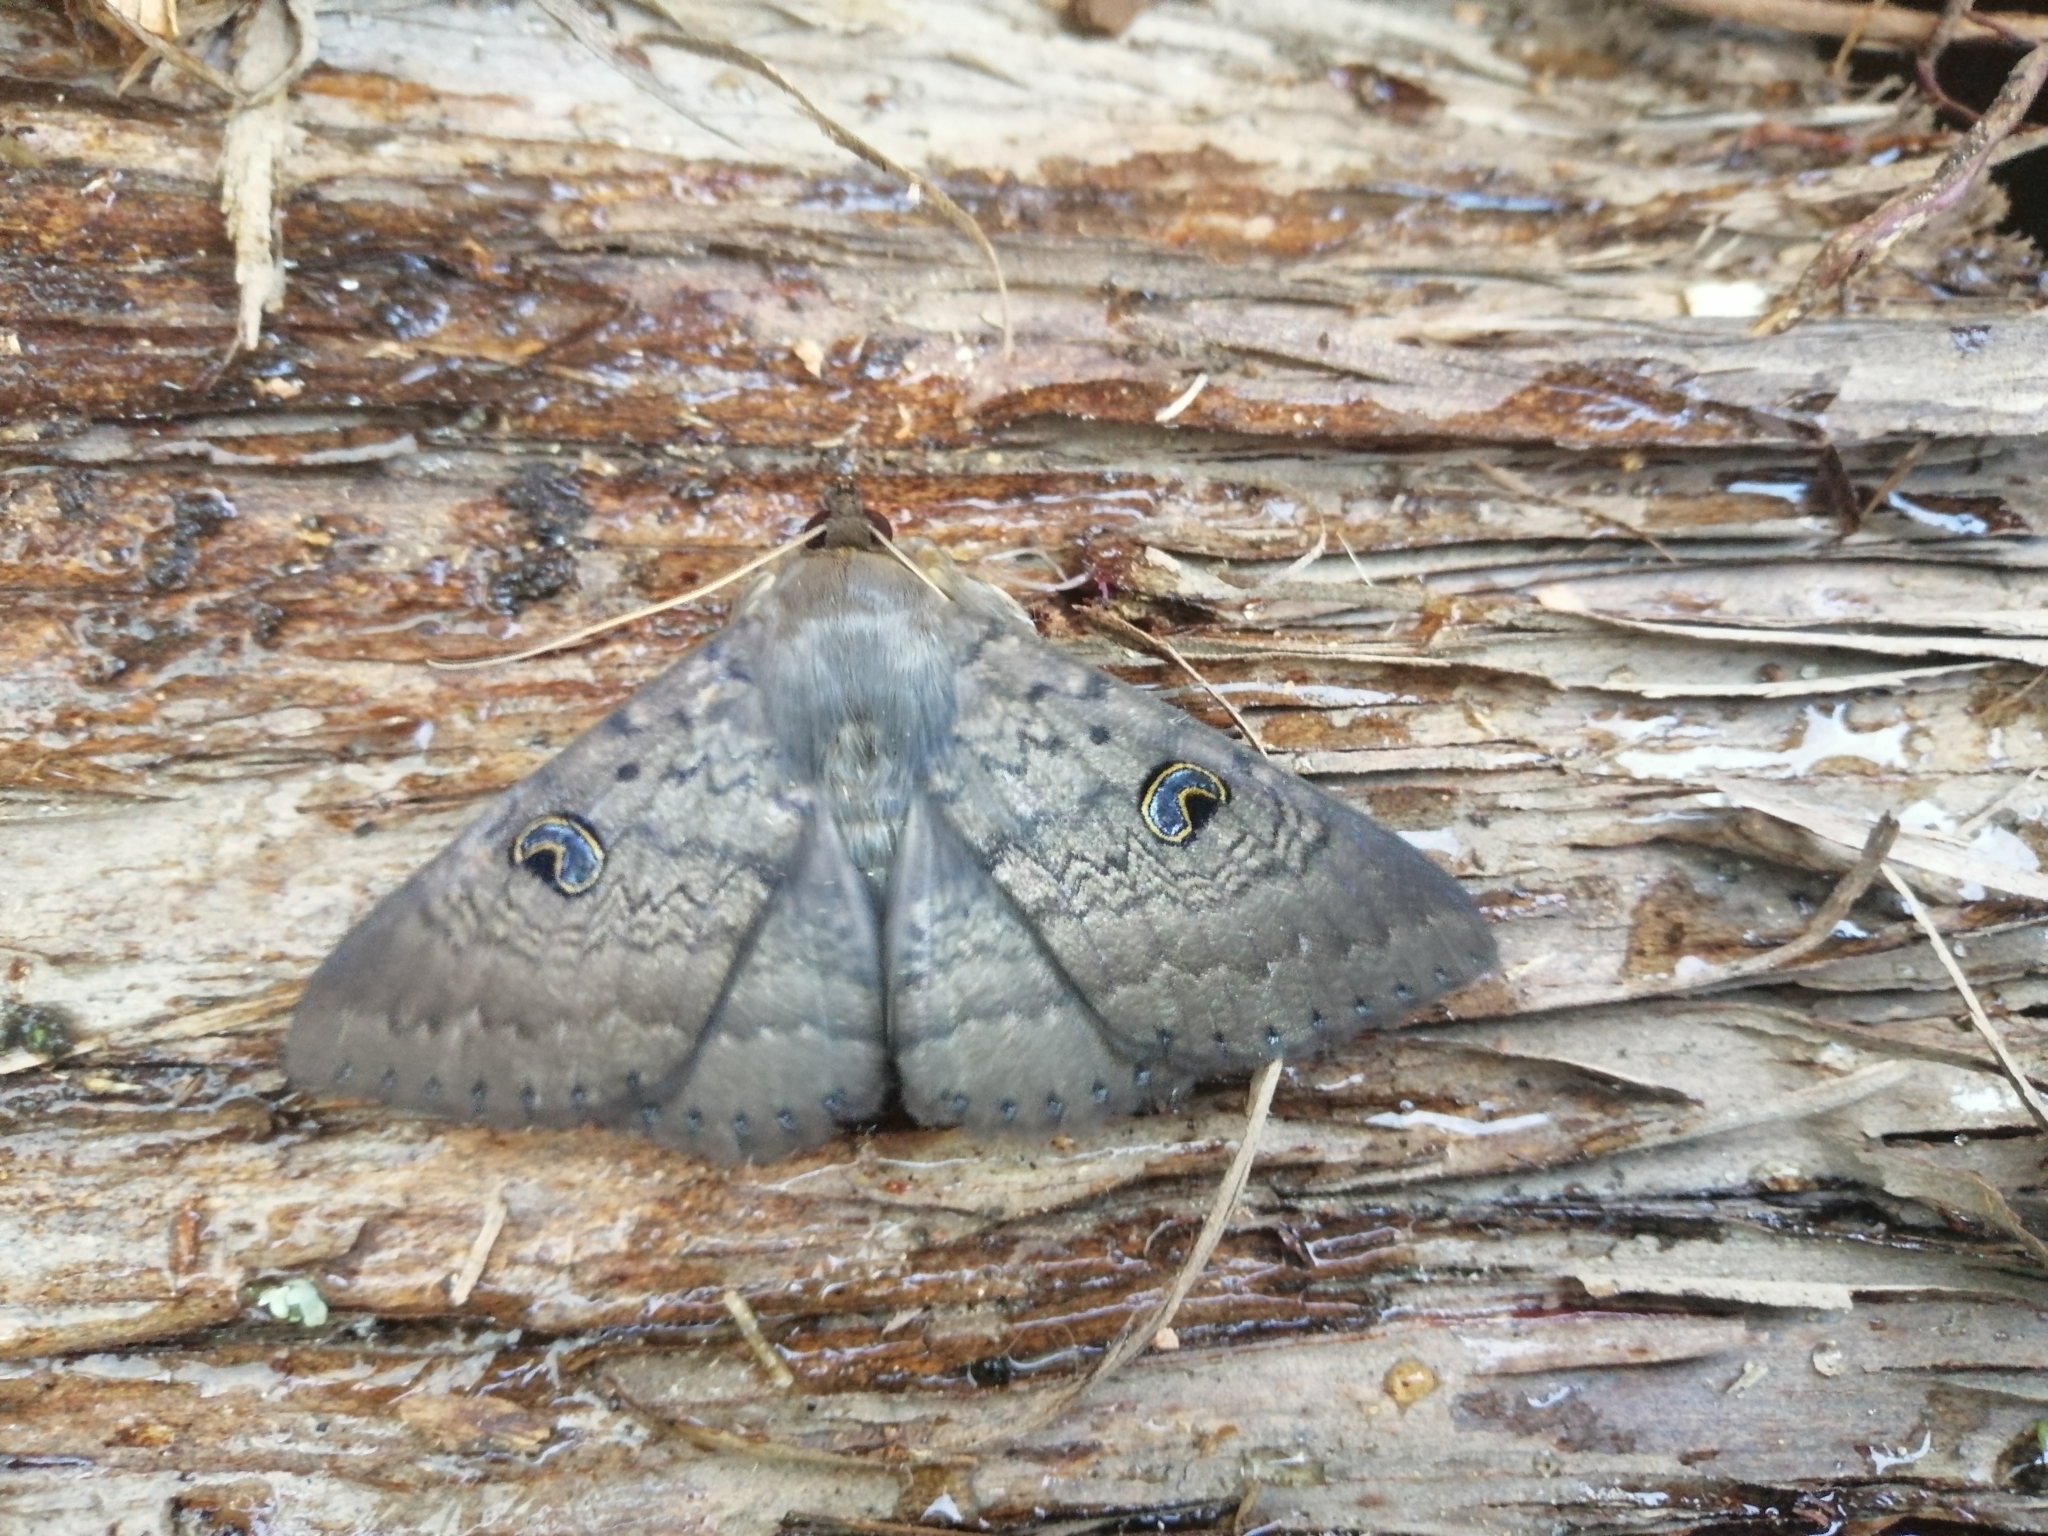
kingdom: Animalia
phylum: Arthropoda
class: Insecta
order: Lepidoptera
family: Erebidae
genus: Dasypodia
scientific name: Dasypodia cymatodes
